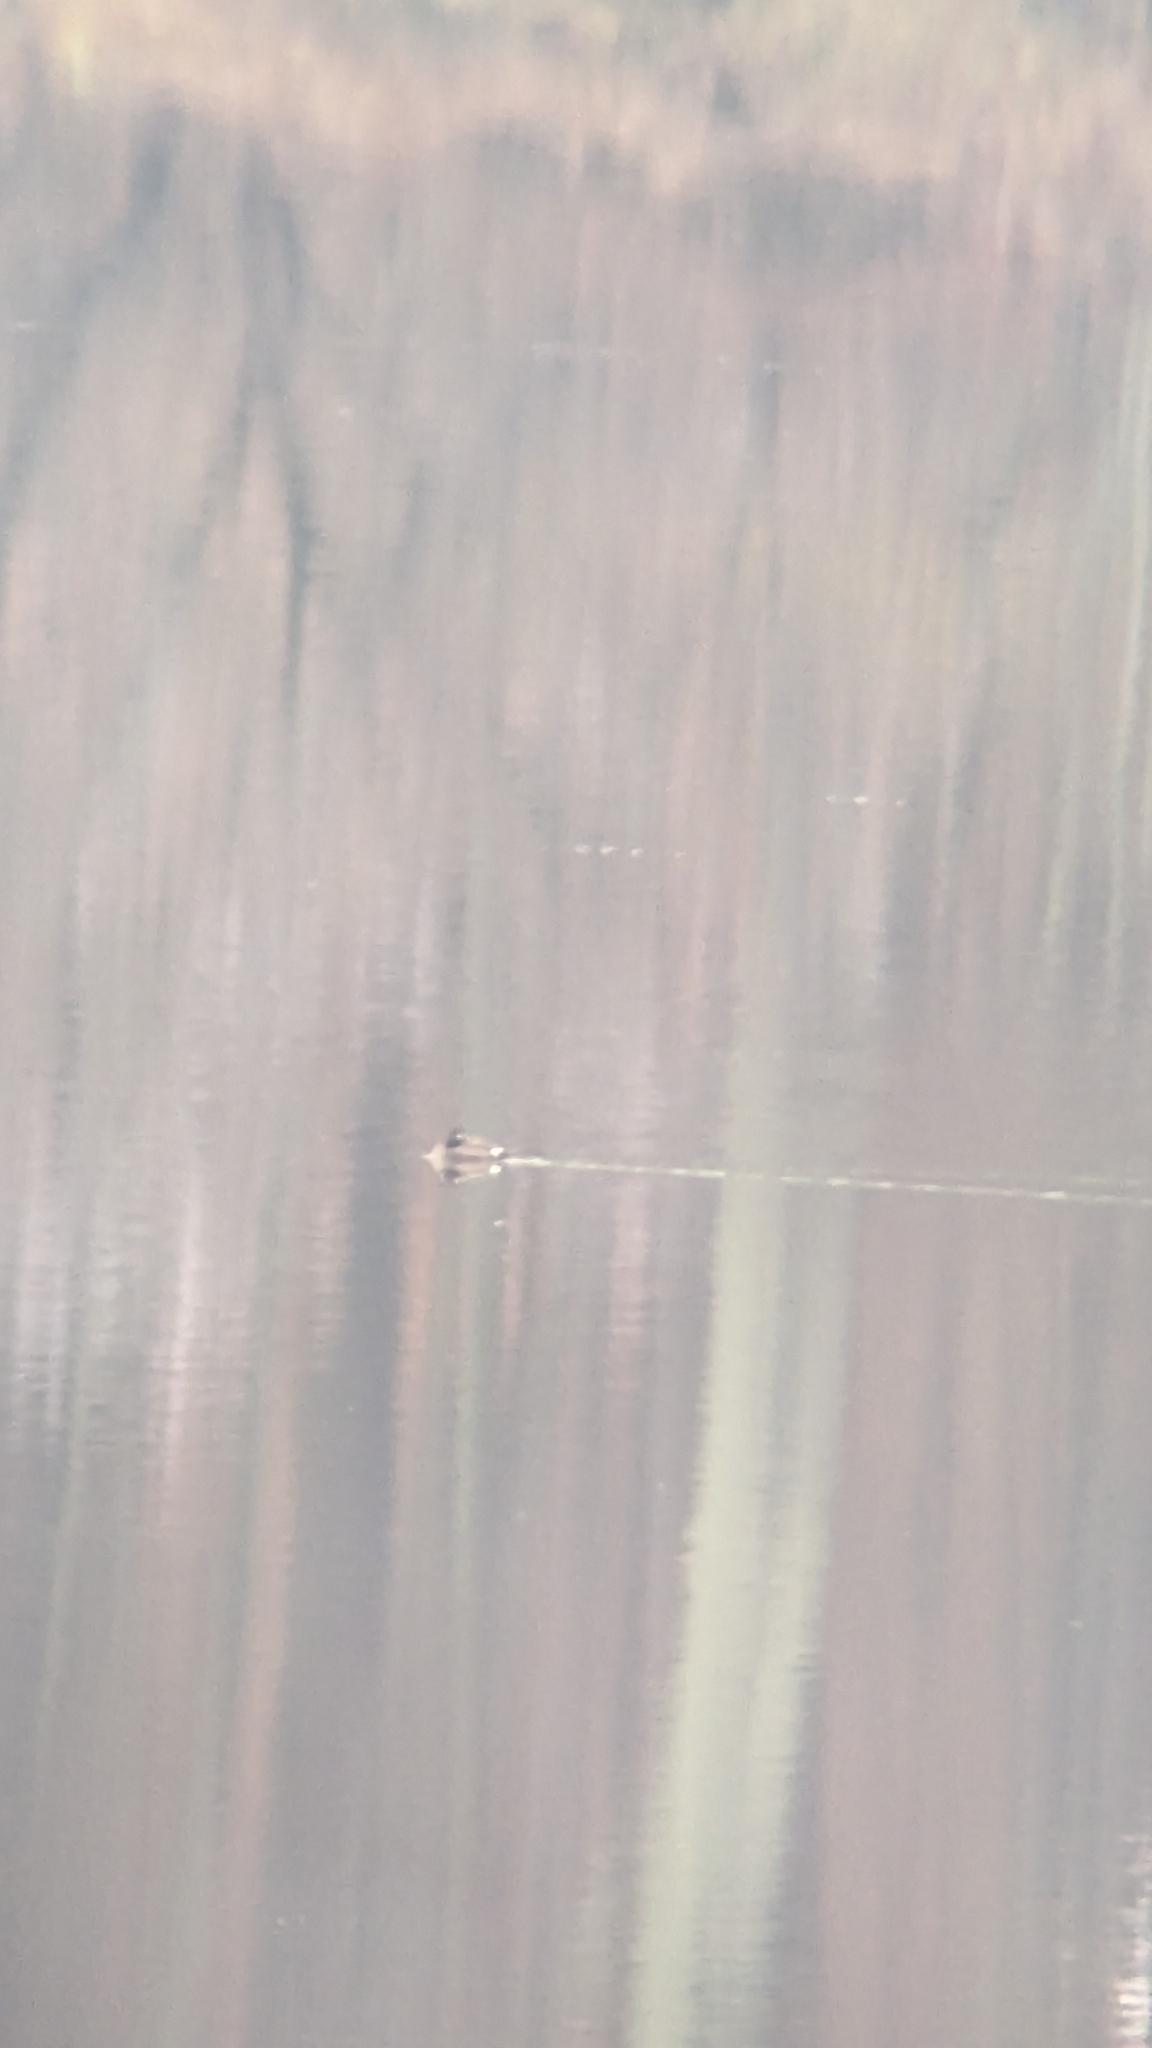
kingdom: Animalia
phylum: Chordata
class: Aves
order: Anseriformes
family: Anatidae
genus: Melanitta
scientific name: Melanitta deglandi
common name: White-winged scoter
